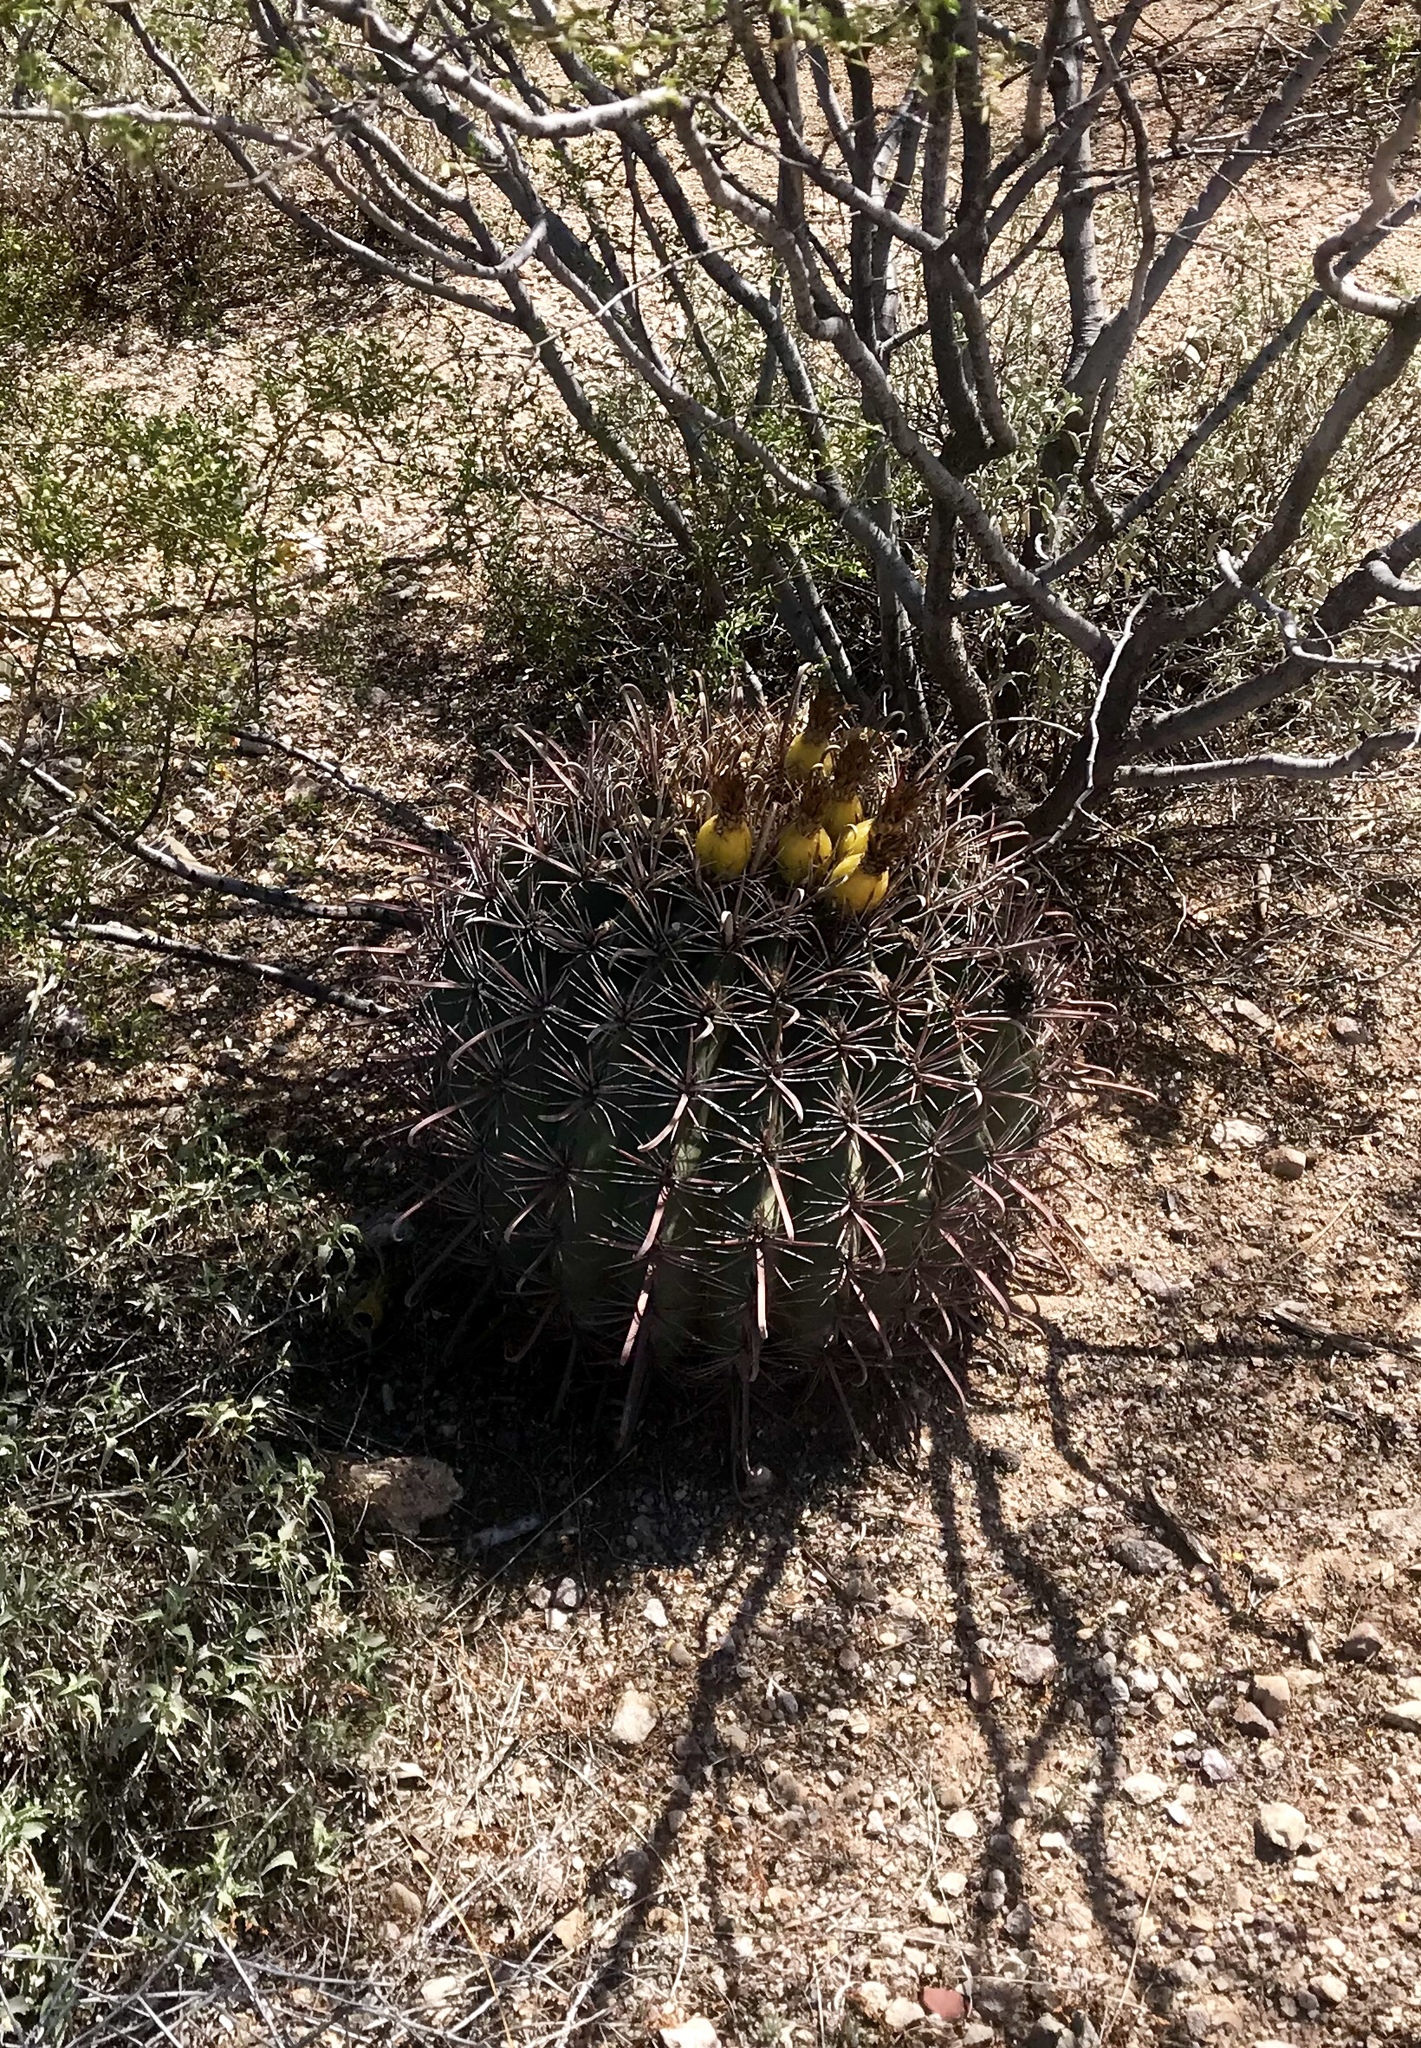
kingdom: Plantae
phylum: Tracheophyta
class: Magnoliopsida
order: Caryophyllales
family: Cactaceae
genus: Ferocactus
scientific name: Ferocactus wislizeni
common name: Candy barrel cactus
